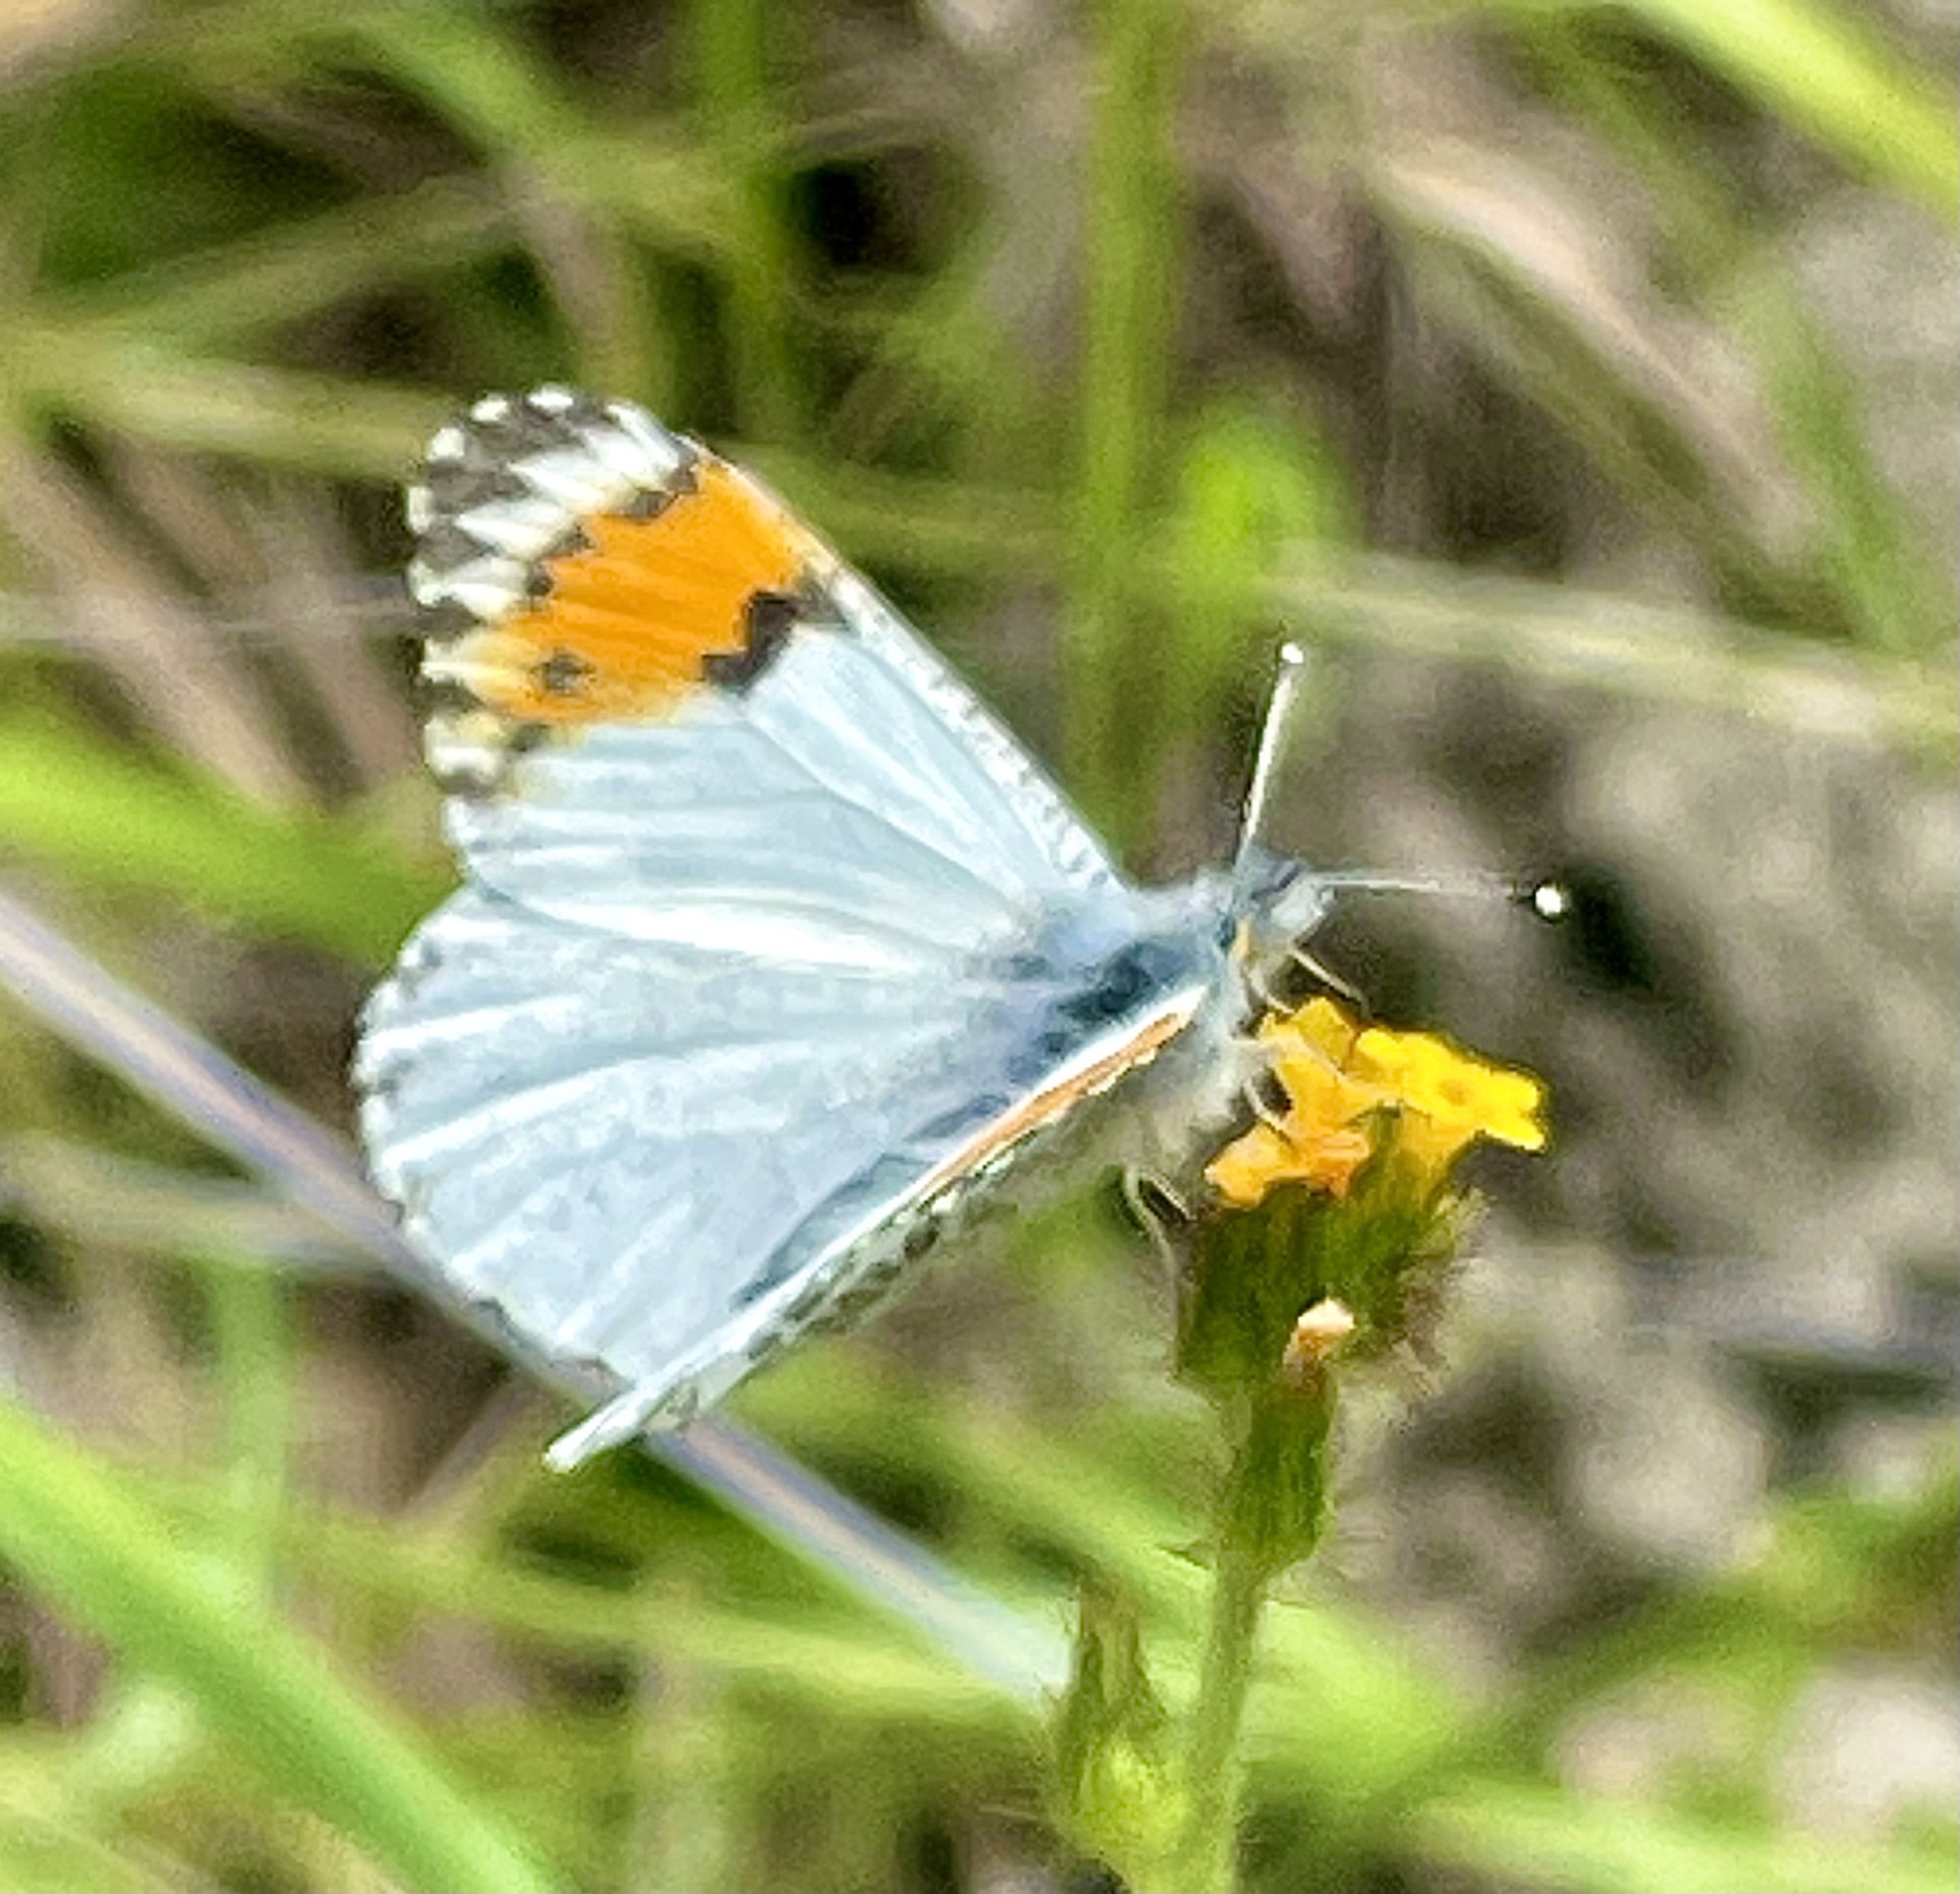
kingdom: Animalia
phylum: Arthropoda
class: Insecta
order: Lepidoptera
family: Pieridae
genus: Anthocharis
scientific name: Anthocharis sara
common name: Sara's orangetip
